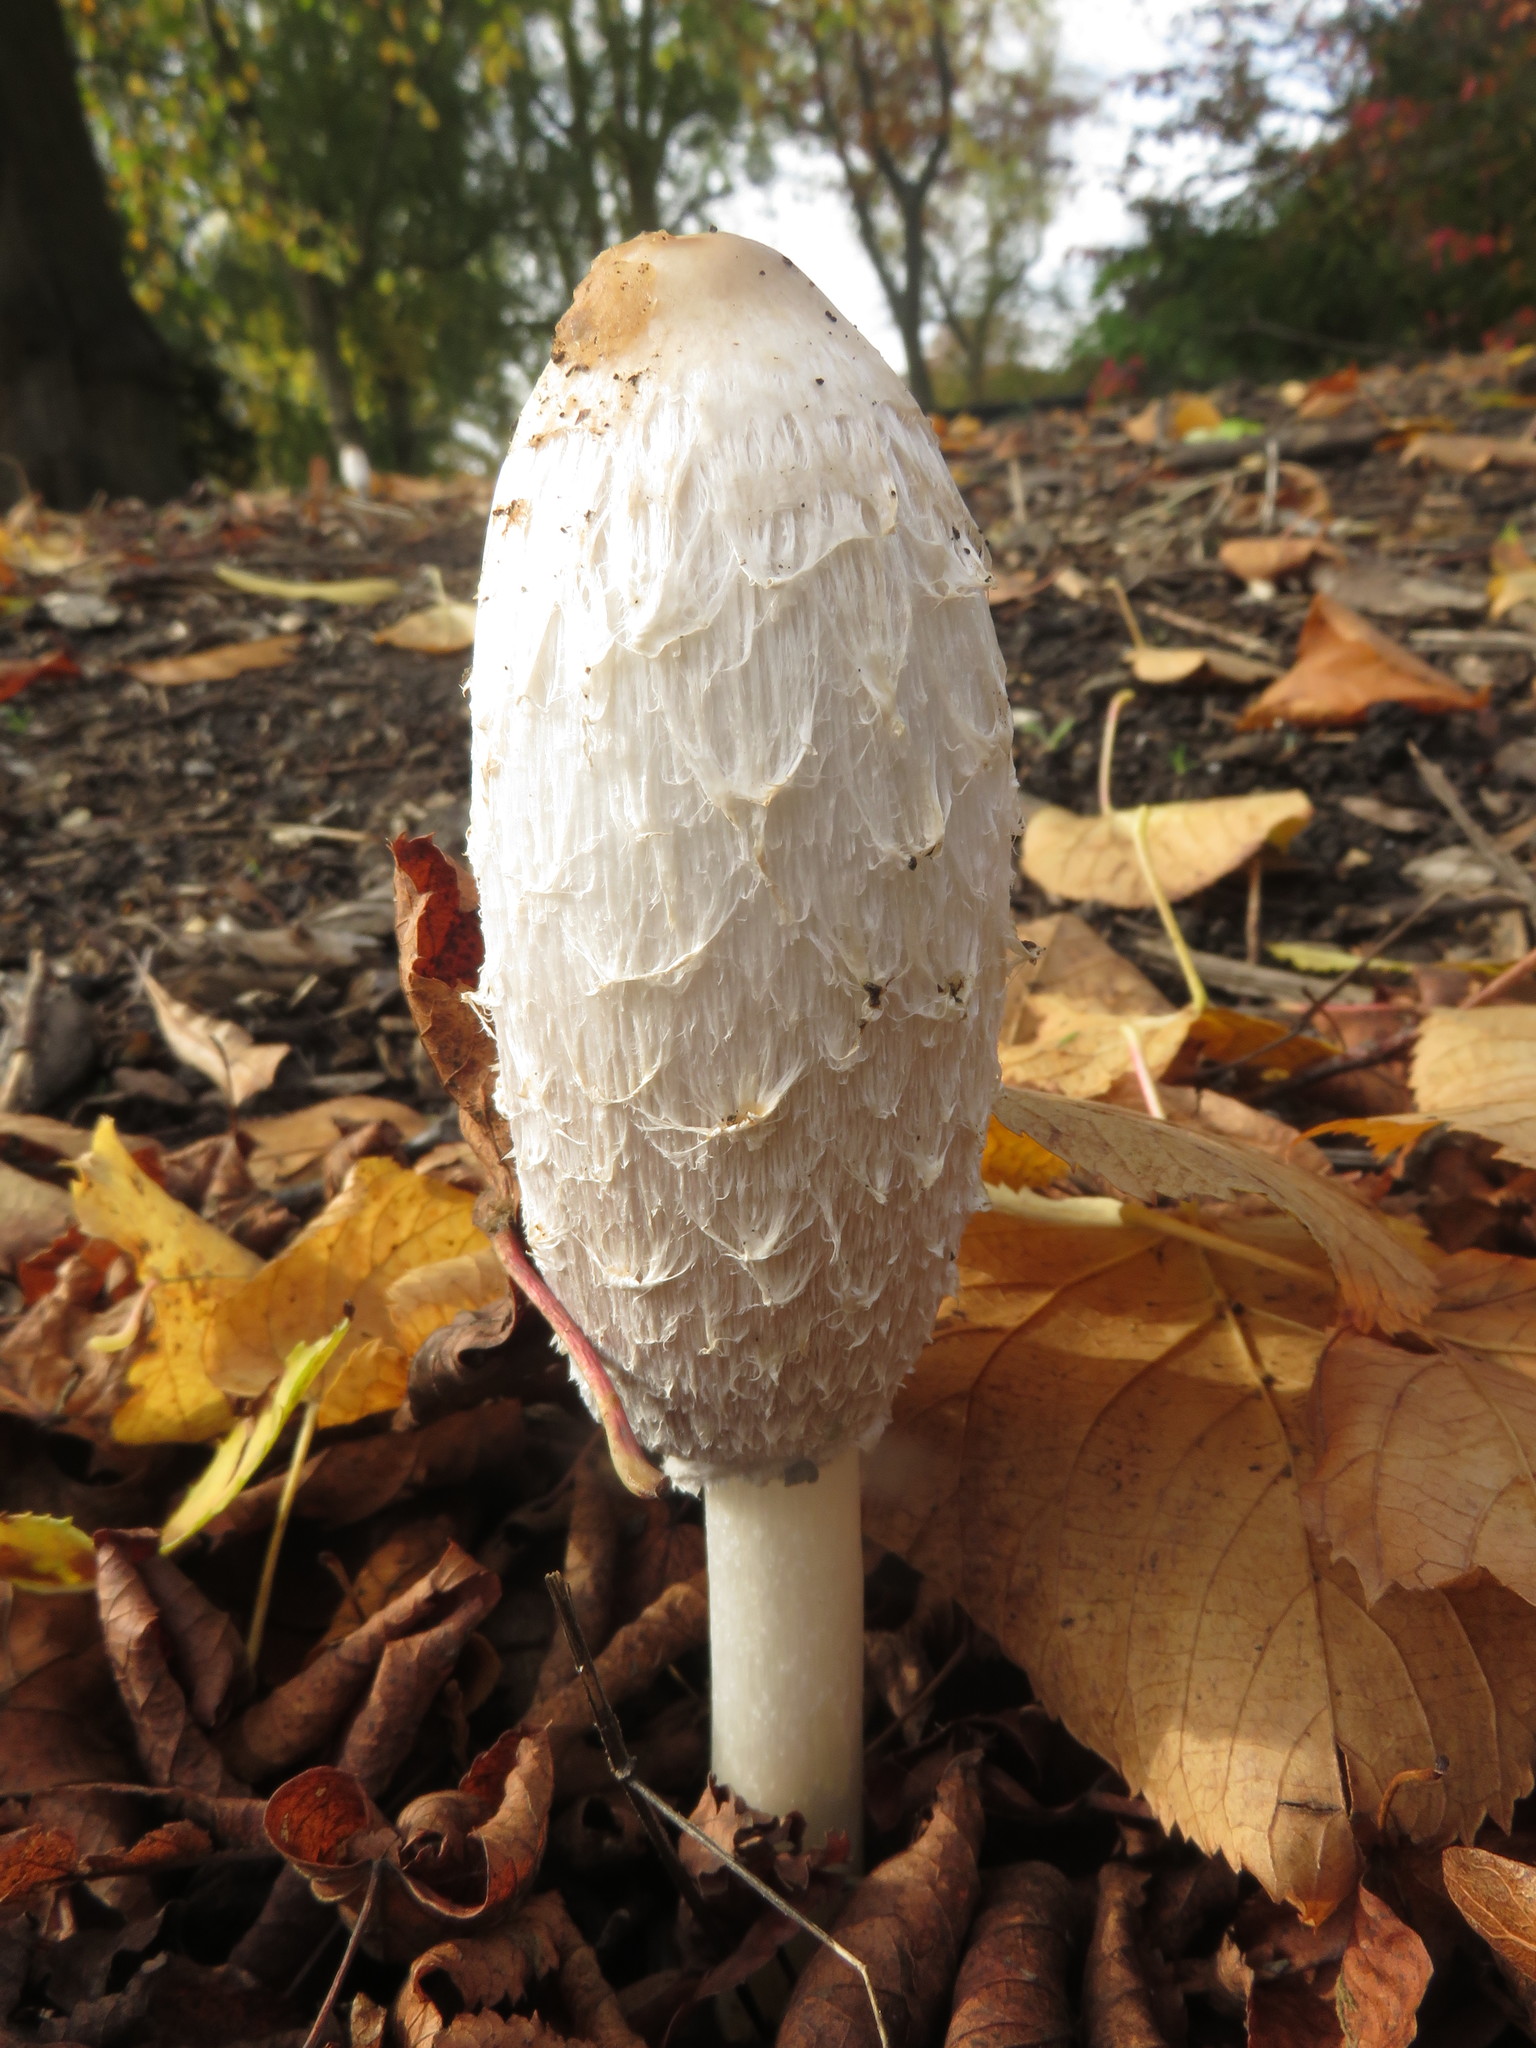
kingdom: Fungi
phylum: Basidiomycota
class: Agaricomycetes
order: Agaricales
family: Agaricaceae
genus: Coprinus
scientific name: Coprinus comatus
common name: Lawyer's wig
